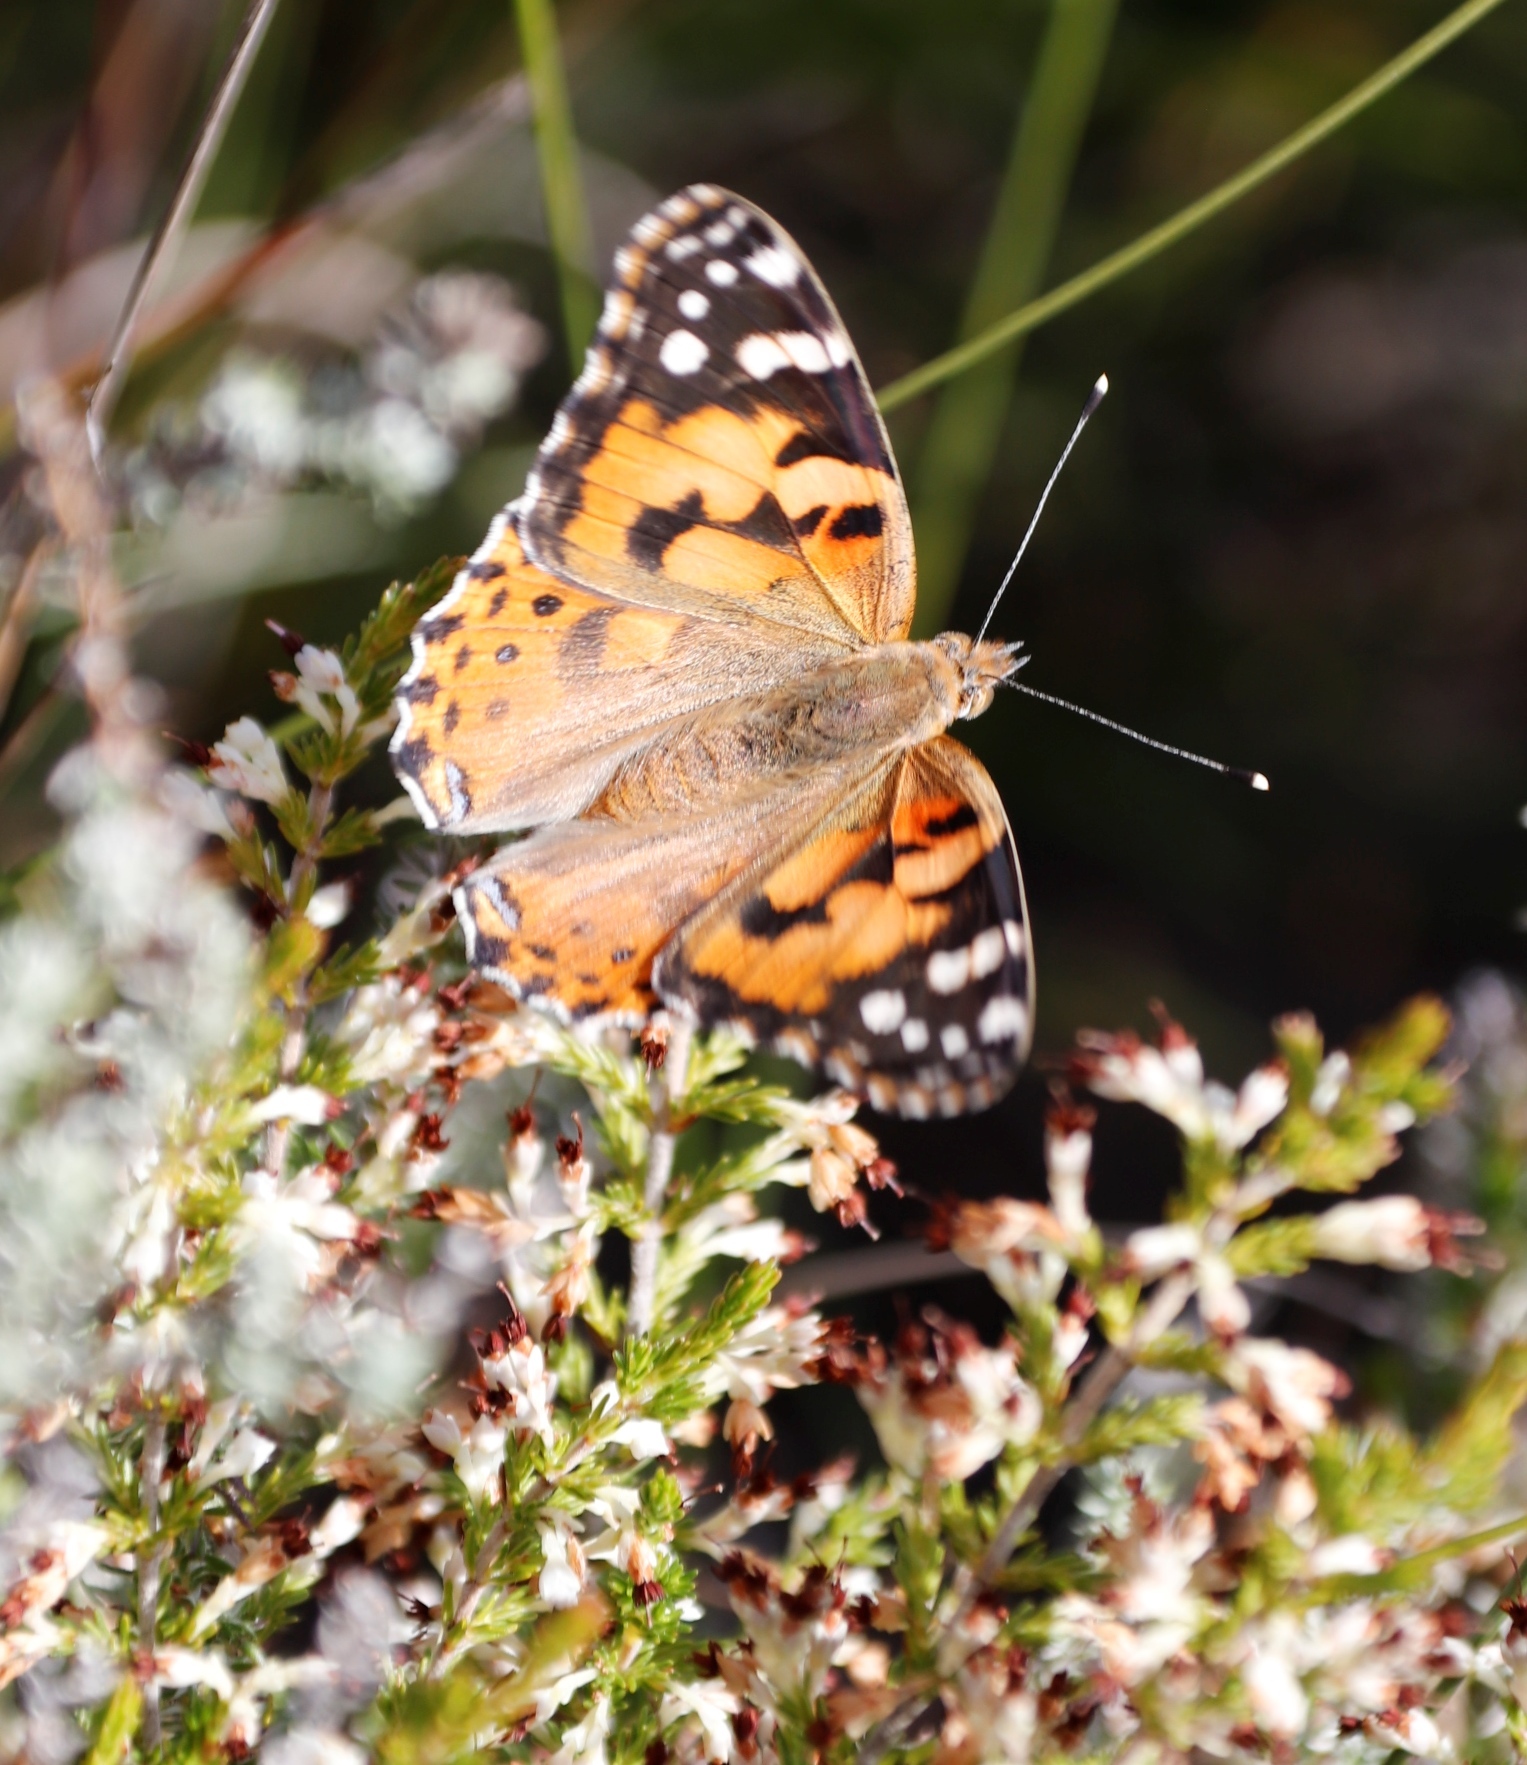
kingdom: Animalia
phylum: Arthropoda
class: Insecta
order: Lepidoptera
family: Nymphalidae
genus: Vanessa
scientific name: Vanessa cardui
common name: Painted lady
